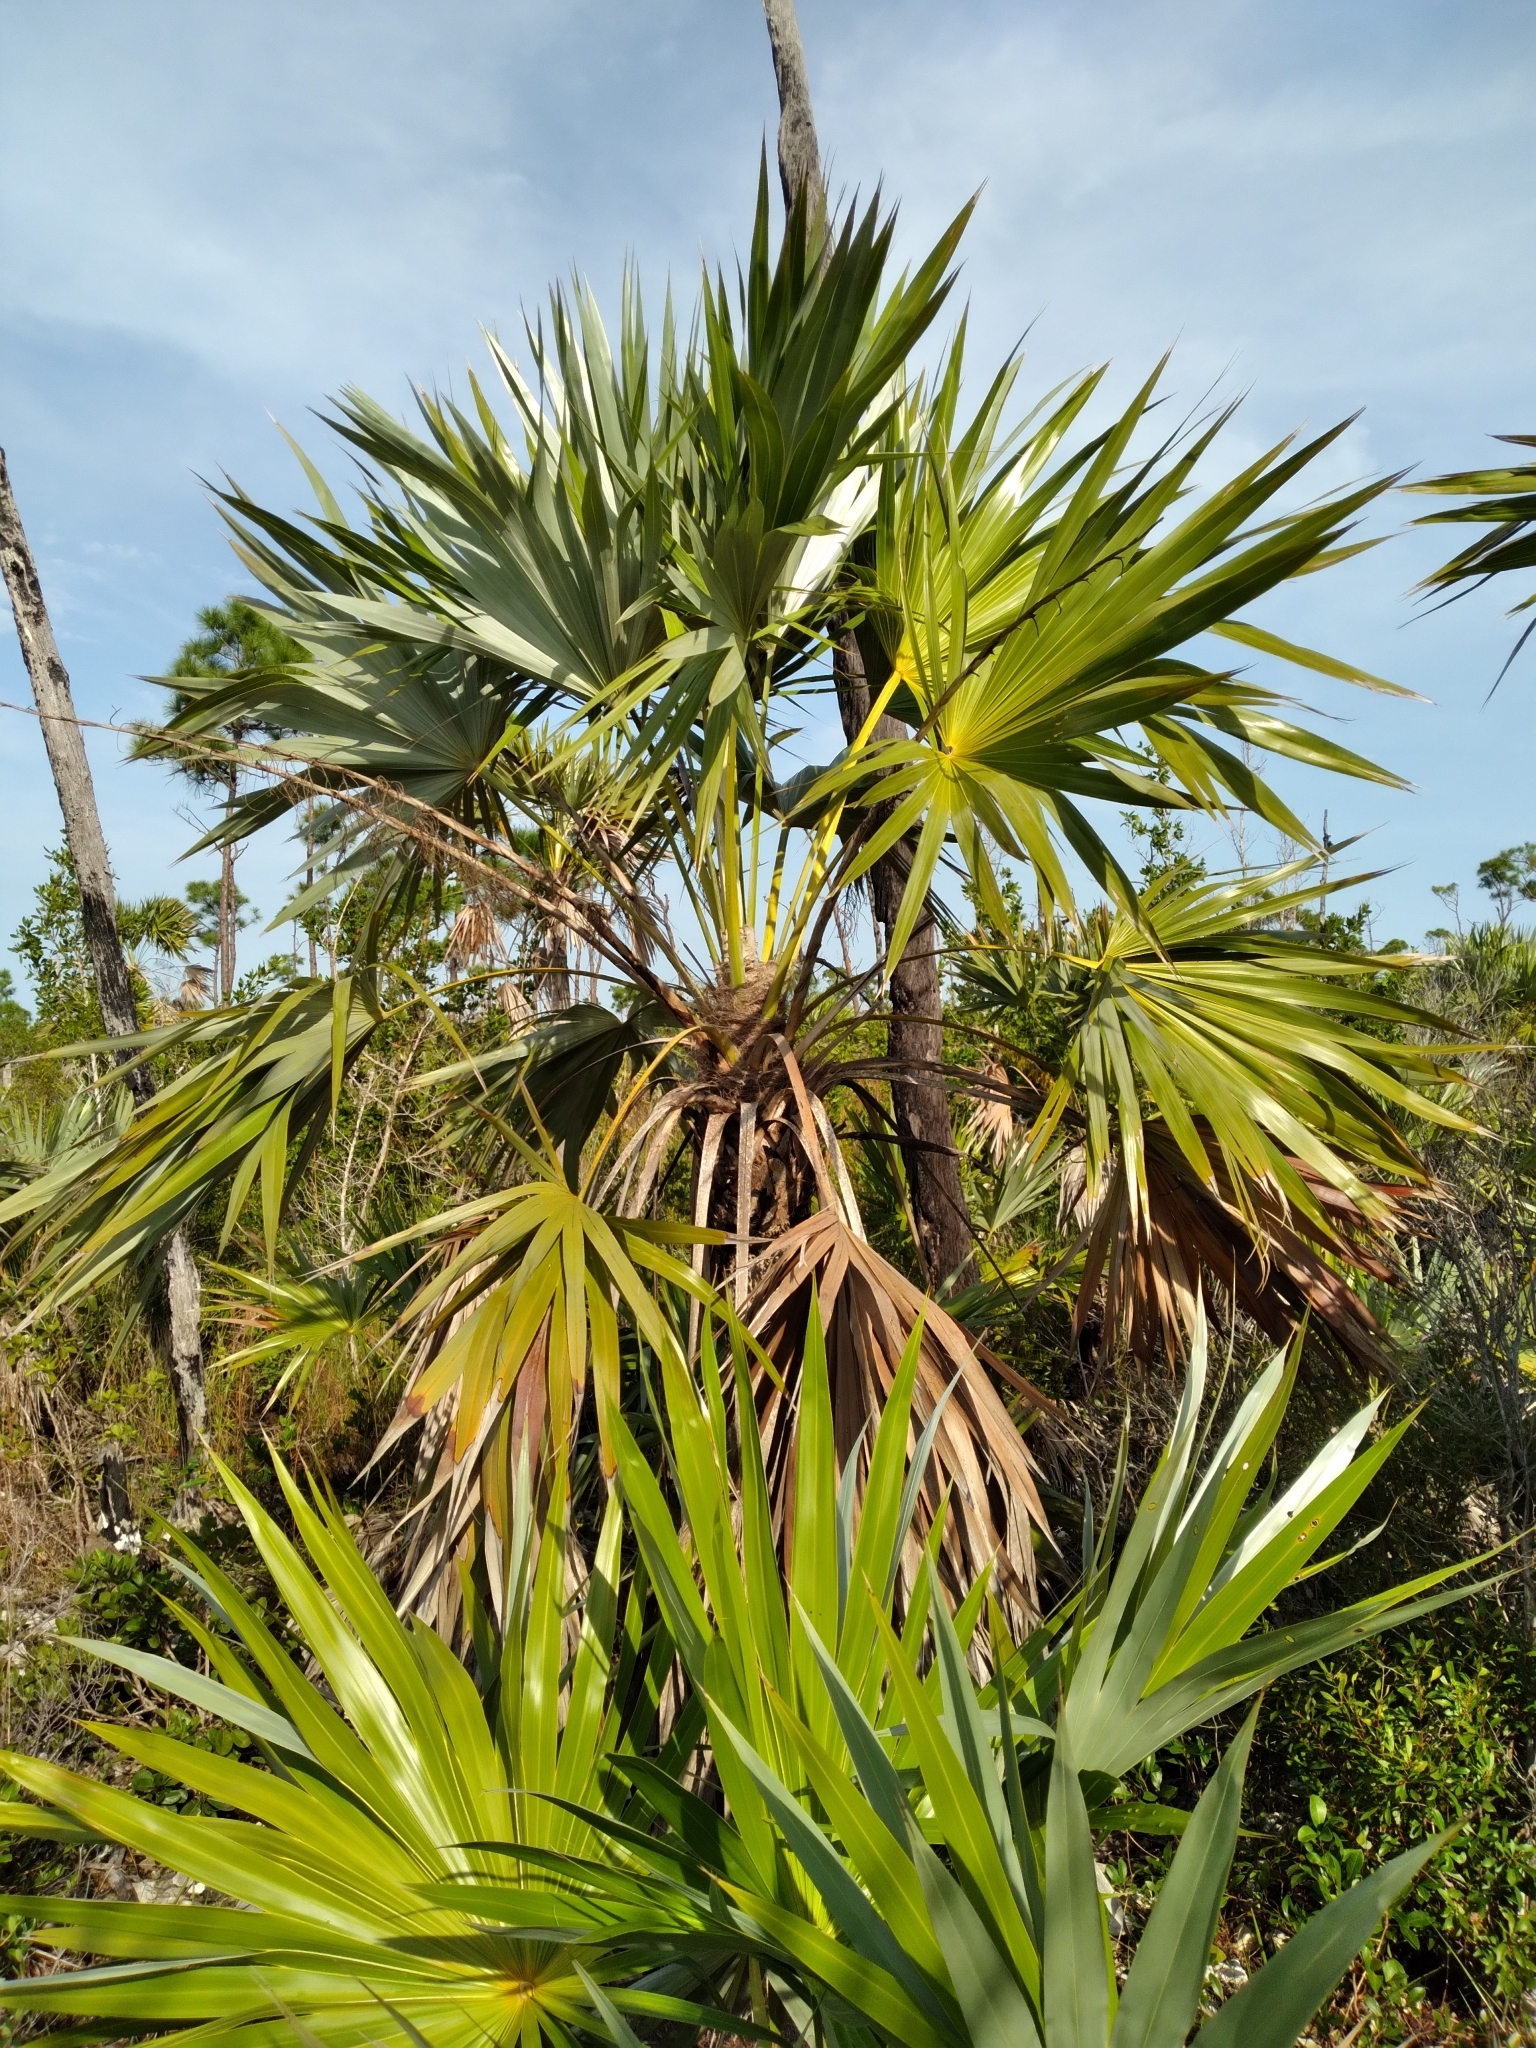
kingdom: Plantae
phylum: Tracheophyta
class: Liliopsida
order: Arecales
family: Arecaceae
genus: Leucothrinax
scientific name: Leucothrinax morrisii
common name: Key palm
